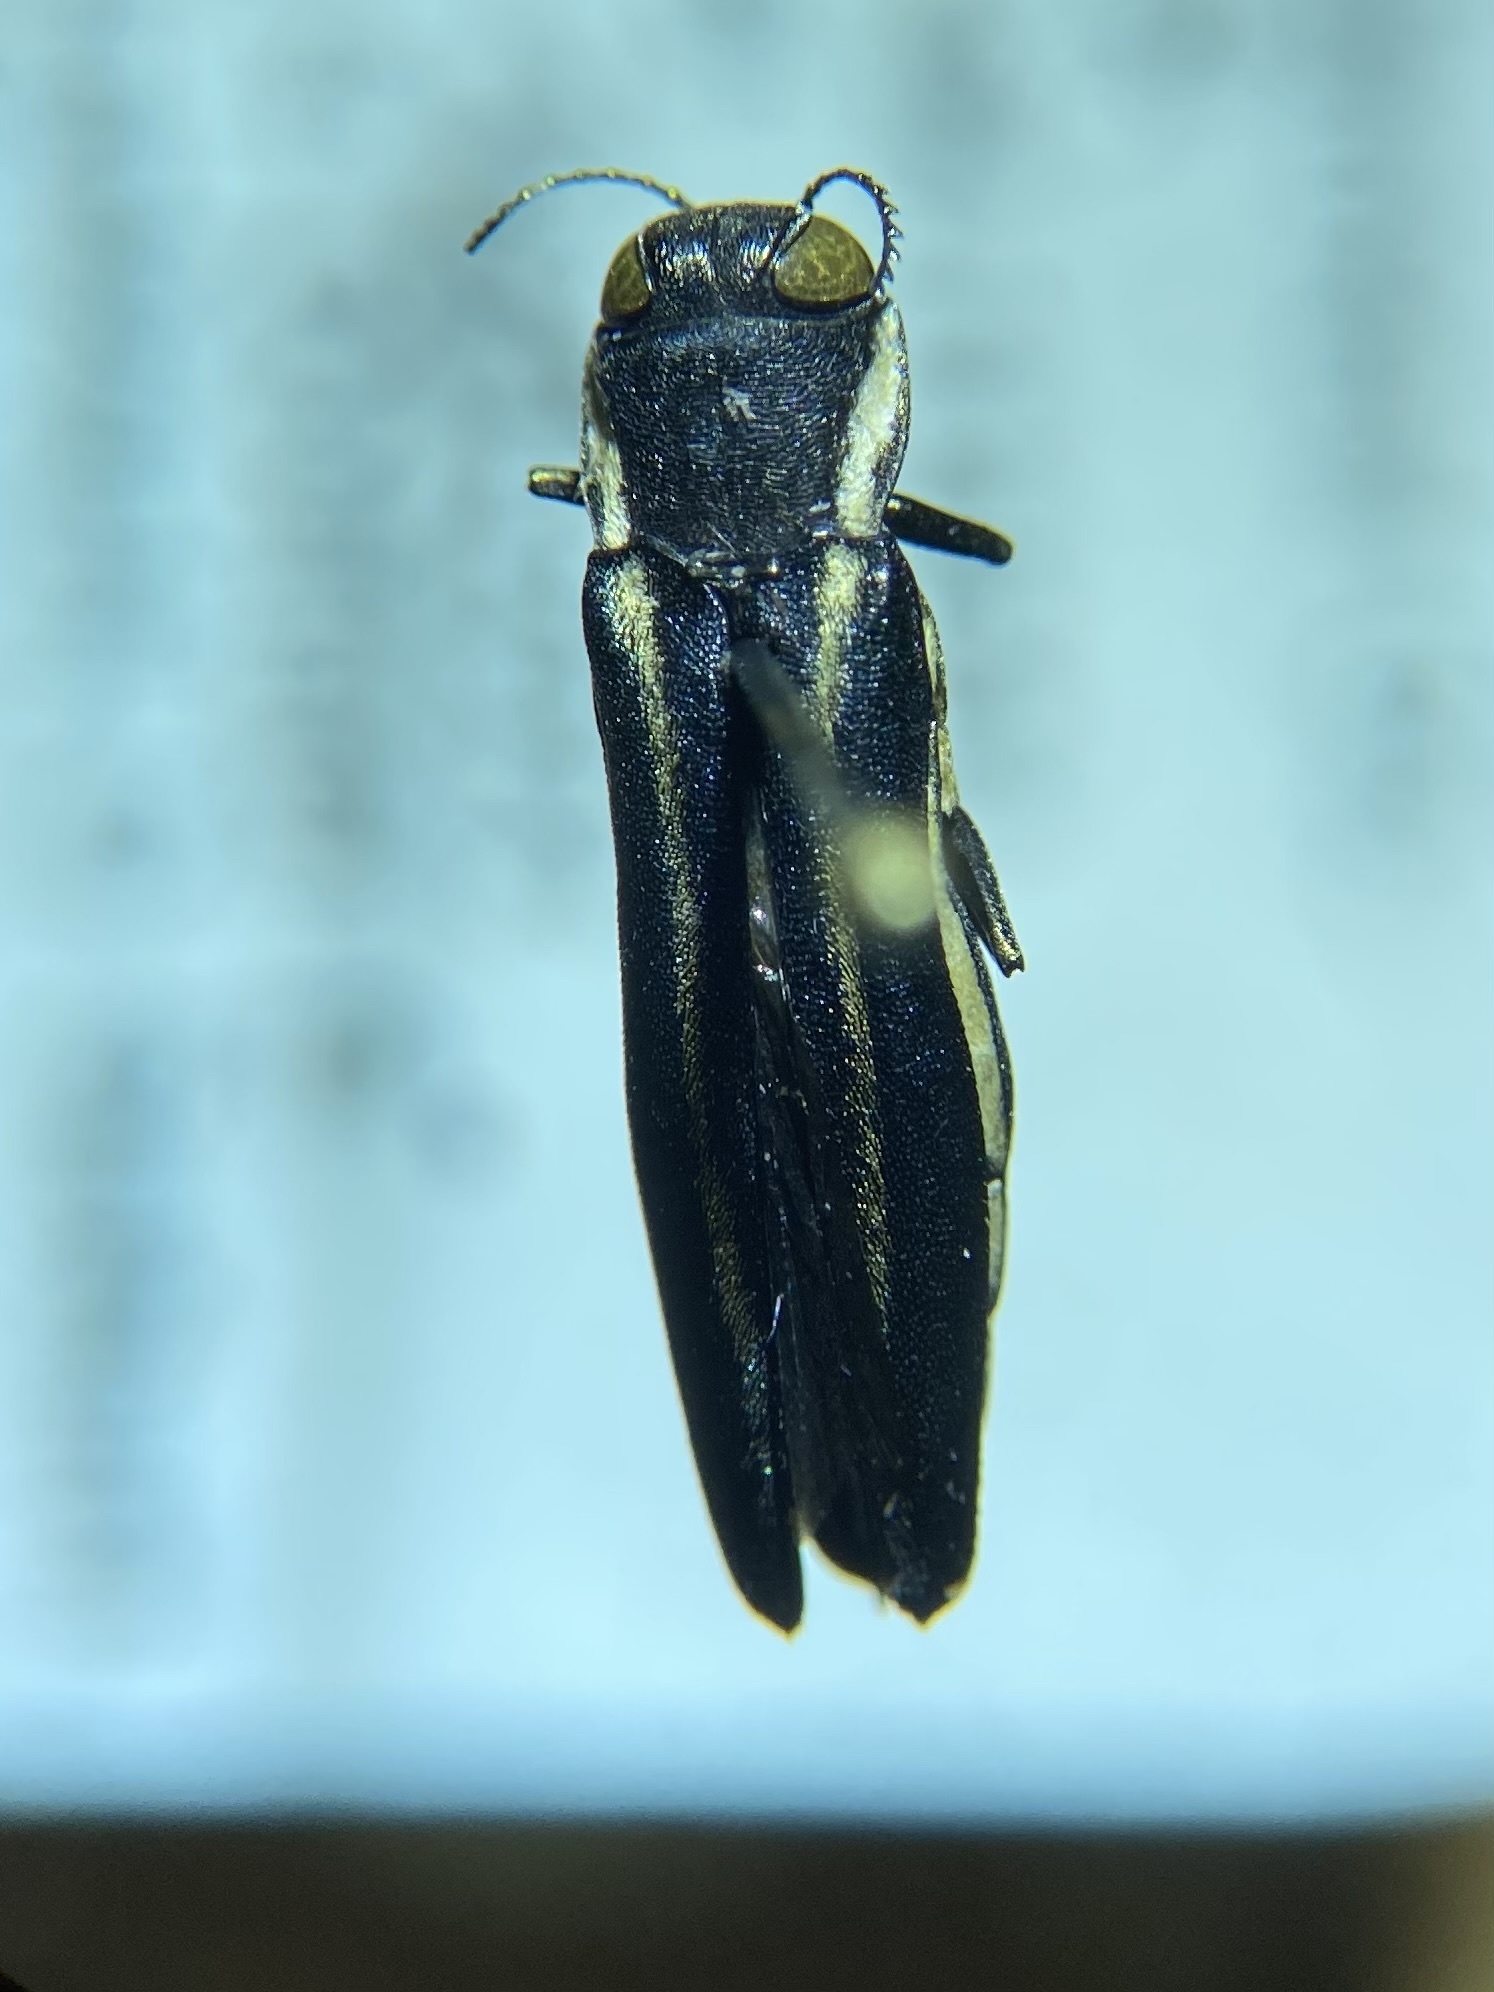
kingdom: Animalia
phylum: Arthropoda
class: Insecta
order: Coleoptera
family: Buprestidae
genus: Agrilus
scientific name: Agrilus bilineatus
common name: Two-lined chestnut borer
